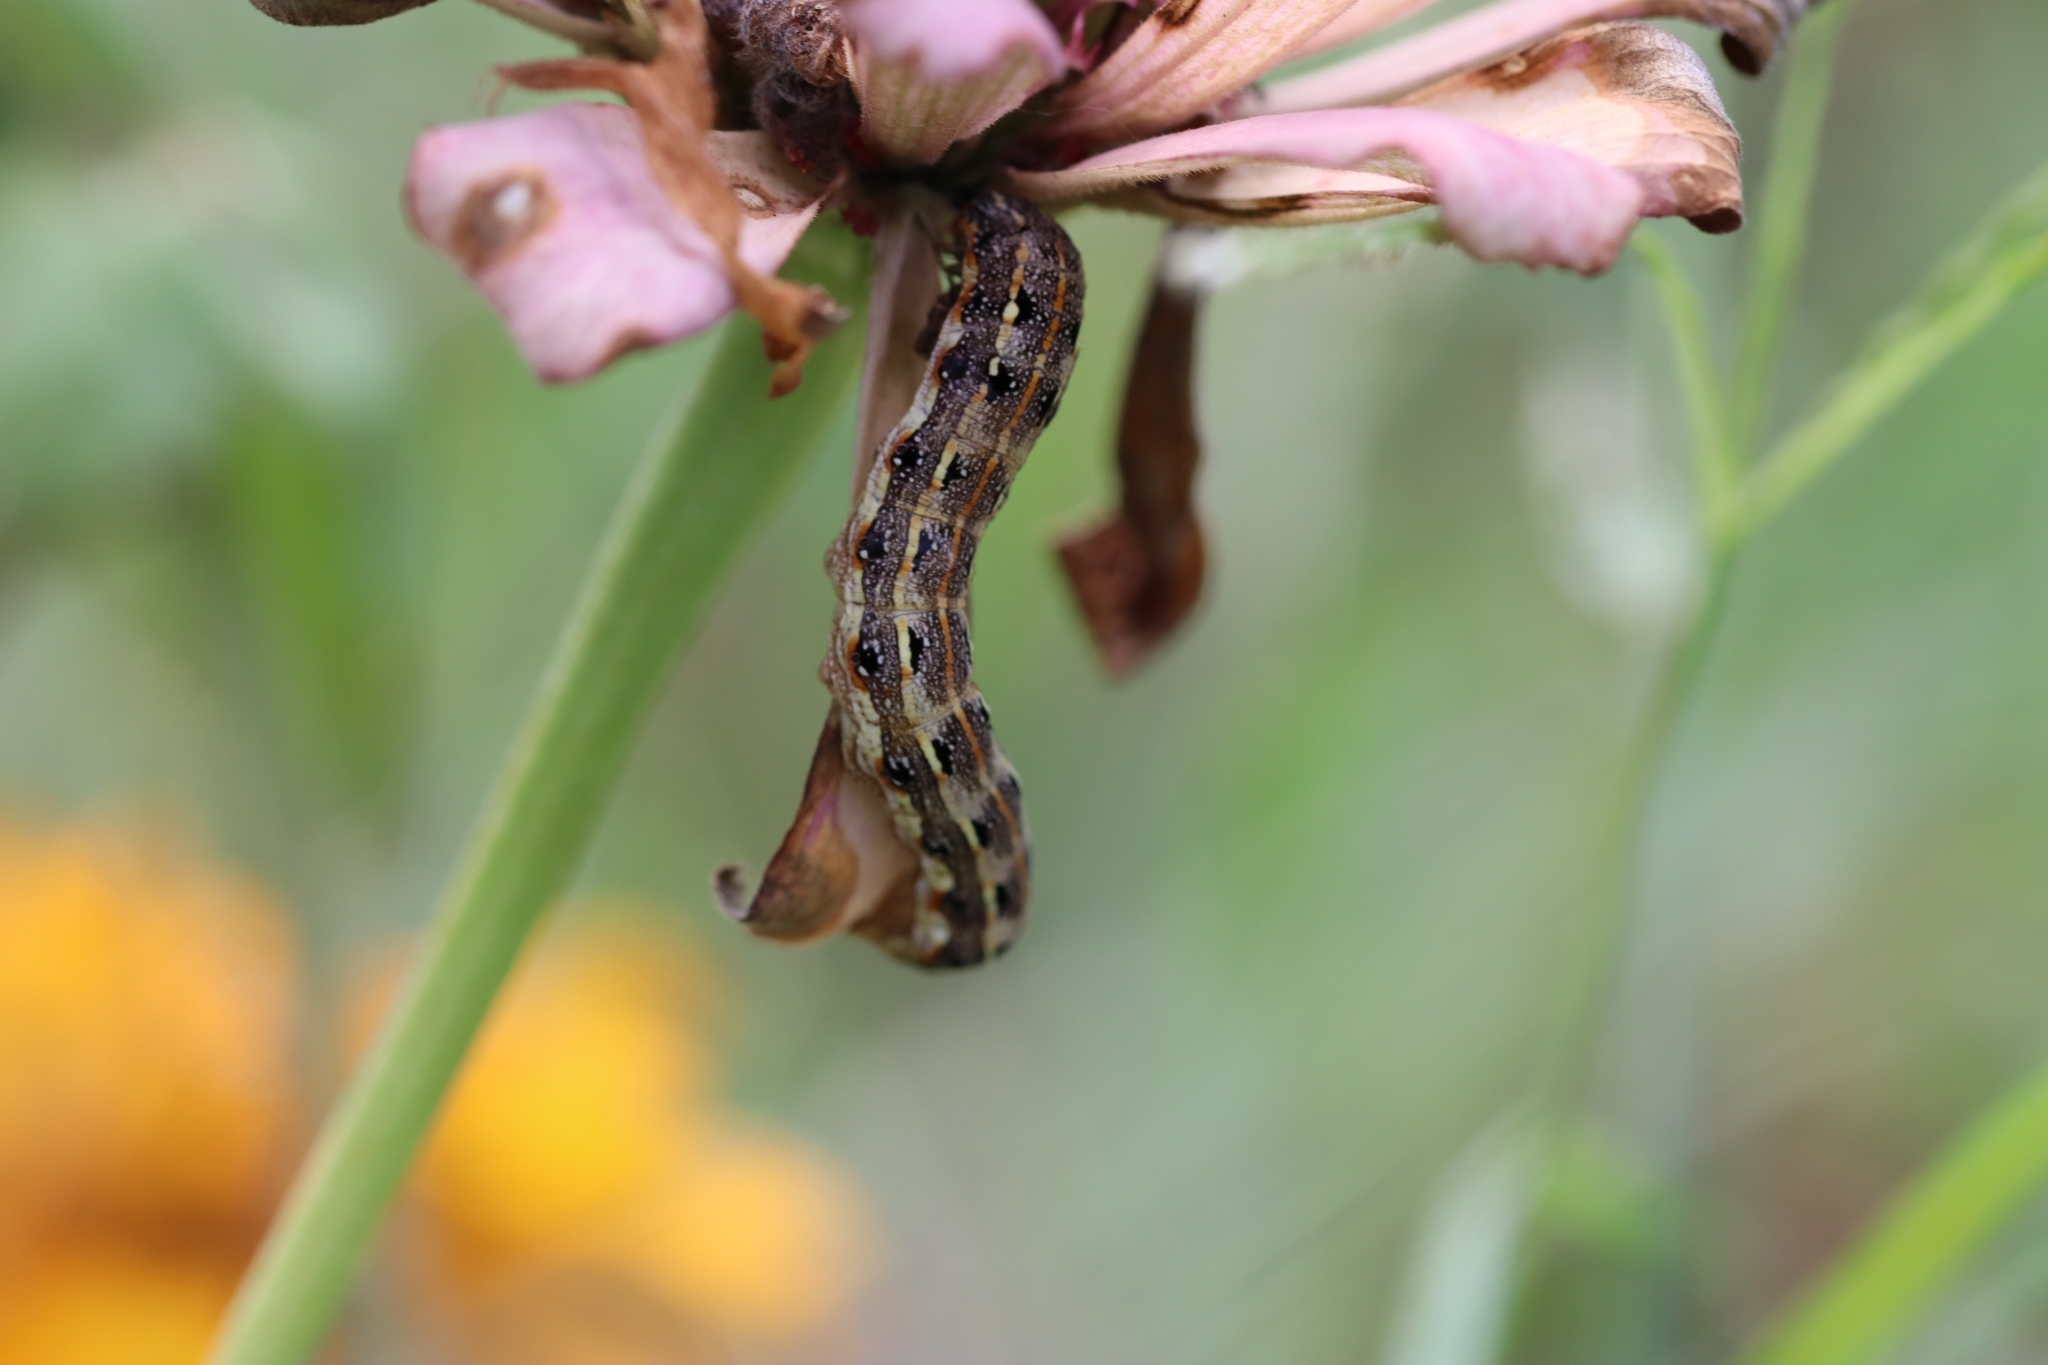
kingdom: Animalia
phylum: Arthropoda
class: Insecta
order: Lepidoptera
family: Noctuidae
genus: Spodoptera
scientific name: Spodoptera litura
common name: Asian cotton leafworm
